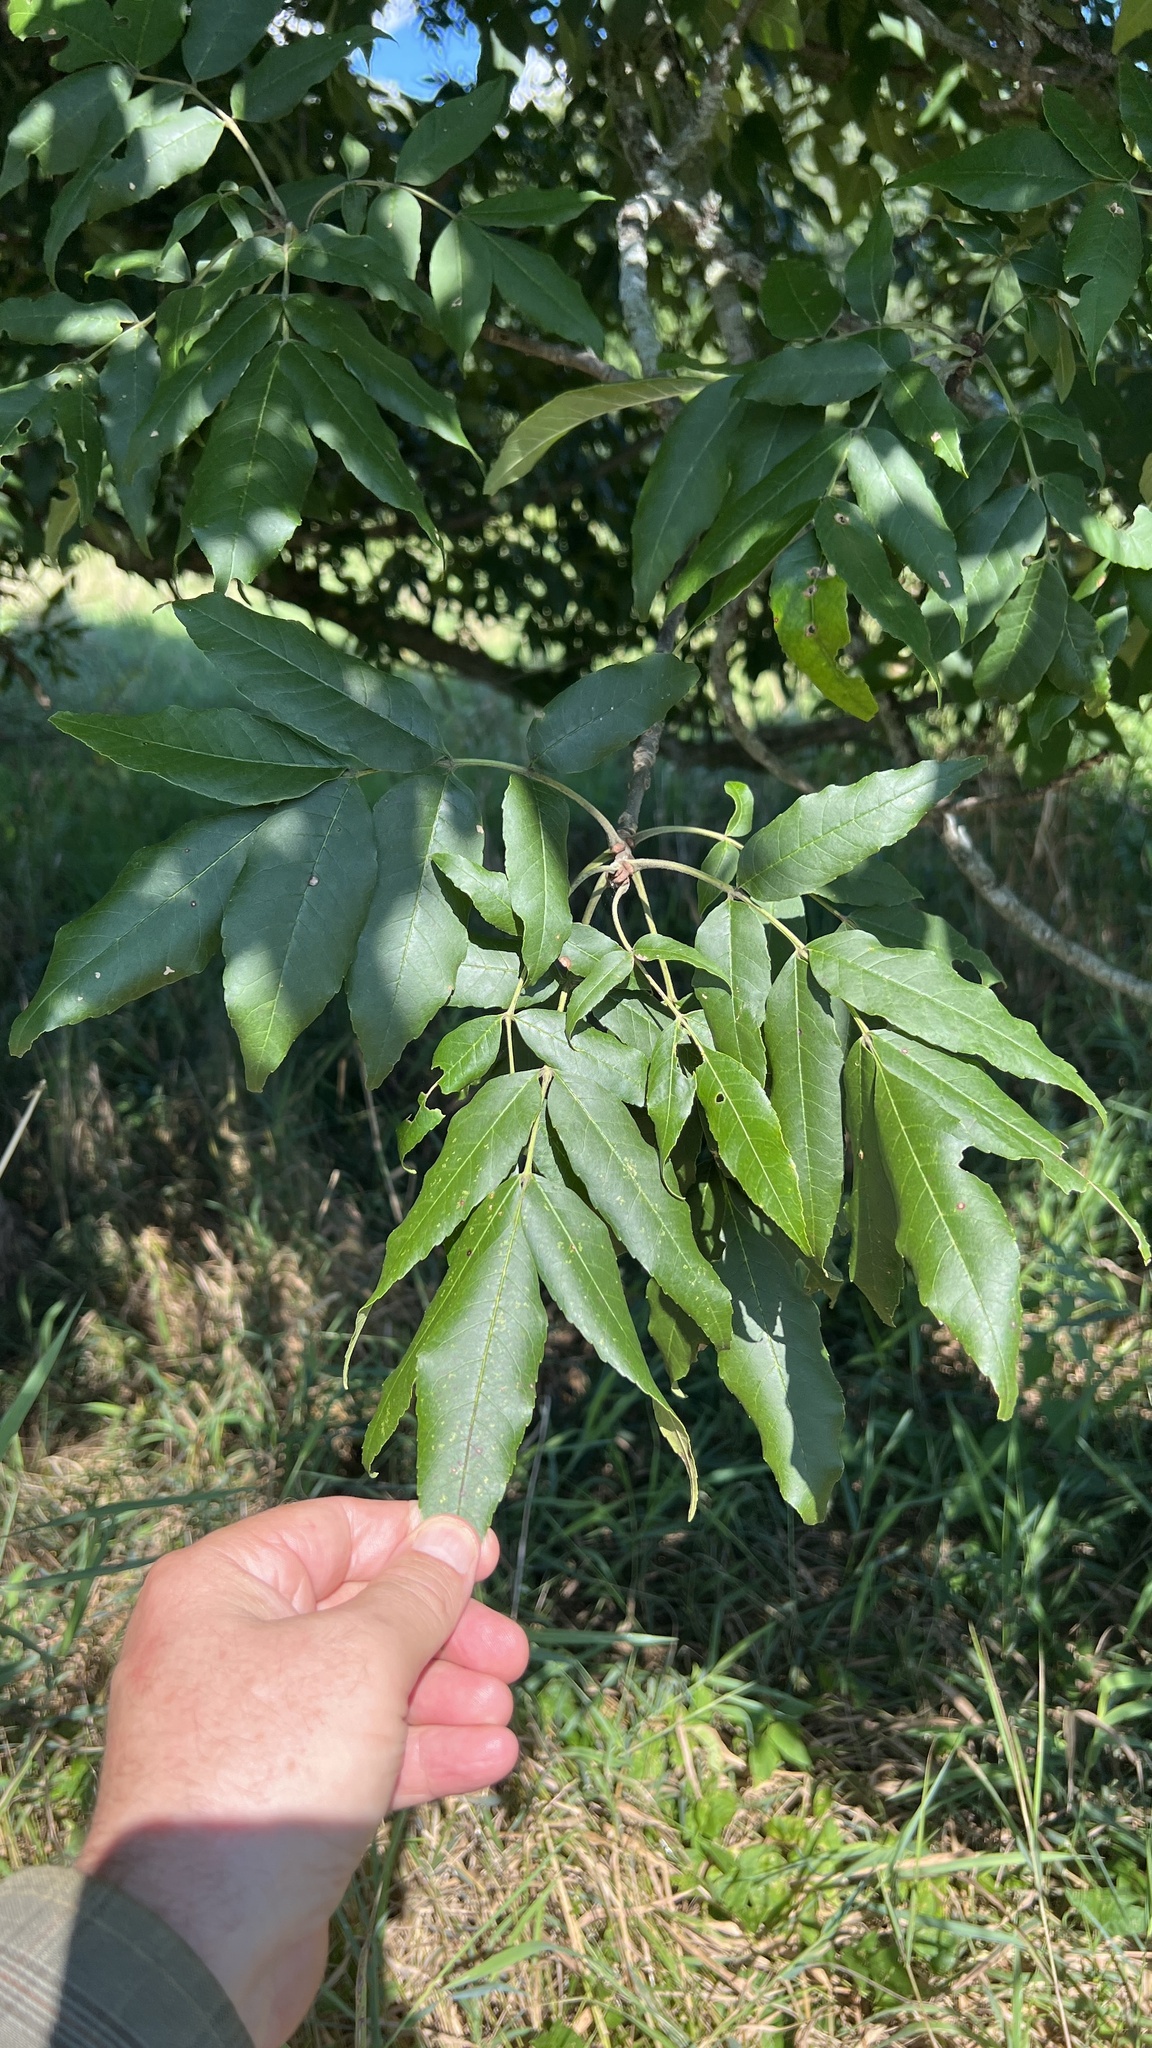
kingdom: Plantae
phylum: Tracheophyta
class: Magnoliopsida
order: Fagales
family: Juglandaceae
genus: Carya
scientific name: Carya cordiformis
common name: Bitternut hickory
